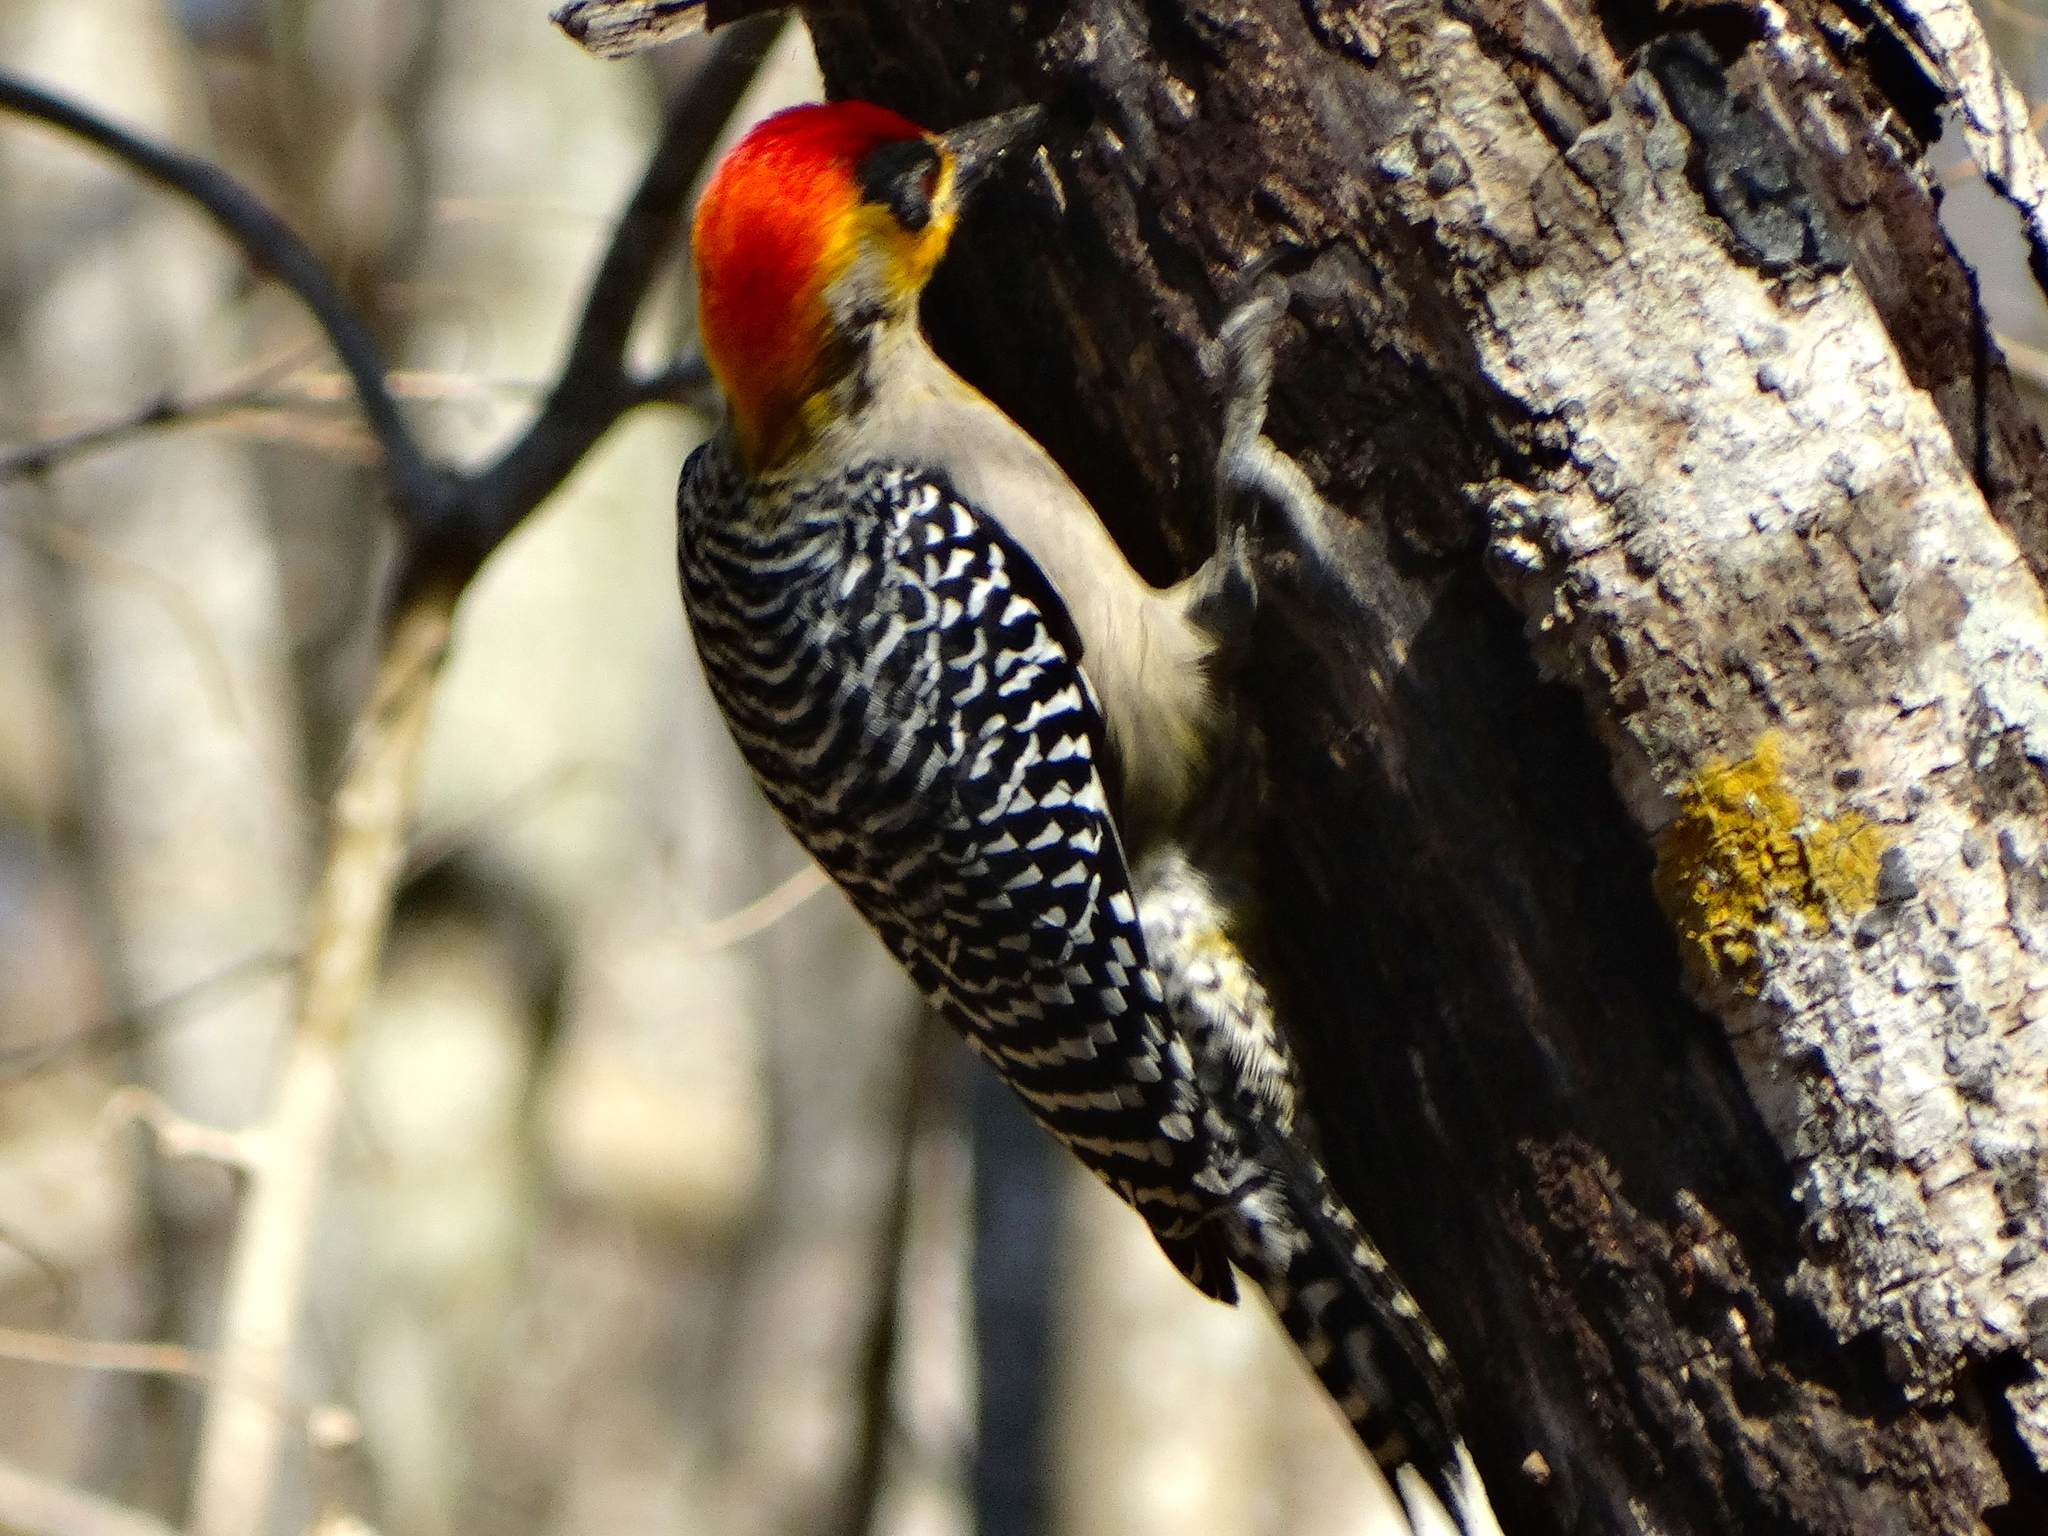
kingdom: Animalia
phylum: Chordata
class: Aves
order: Piciformes
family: Picidae
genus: Melanerpes
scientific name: Melanerpes chrysogenys
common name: Golden-cheeked woodpecker
